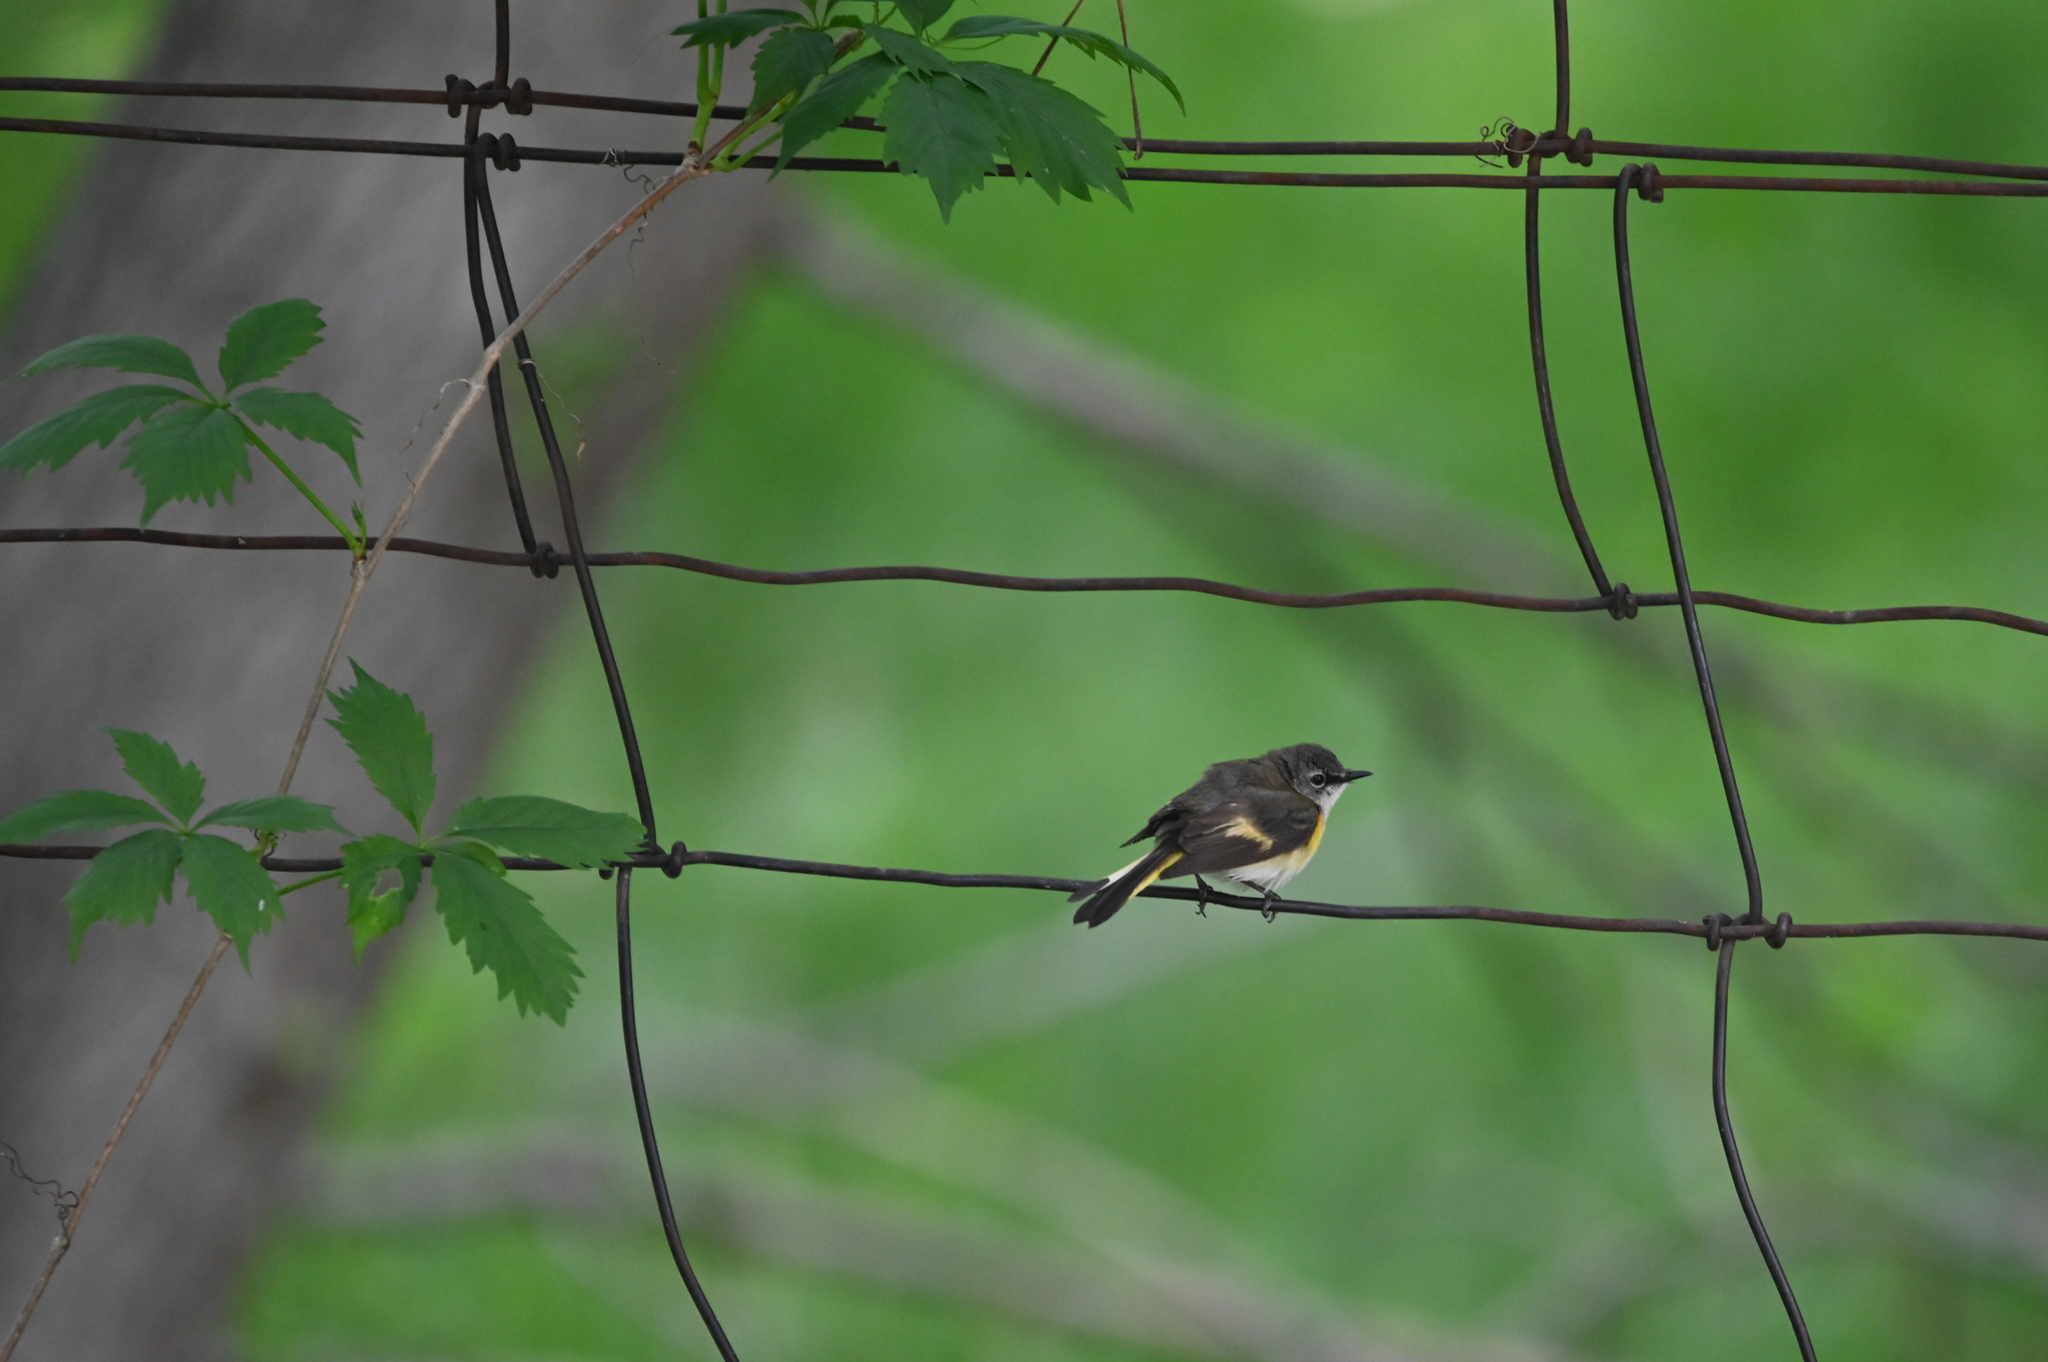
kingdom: Animalia
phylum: Chordata
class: Aves
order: Passeriformes
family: Parulidae
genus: Setophaga
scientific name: Setophaga ruticilla
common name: American redstart
